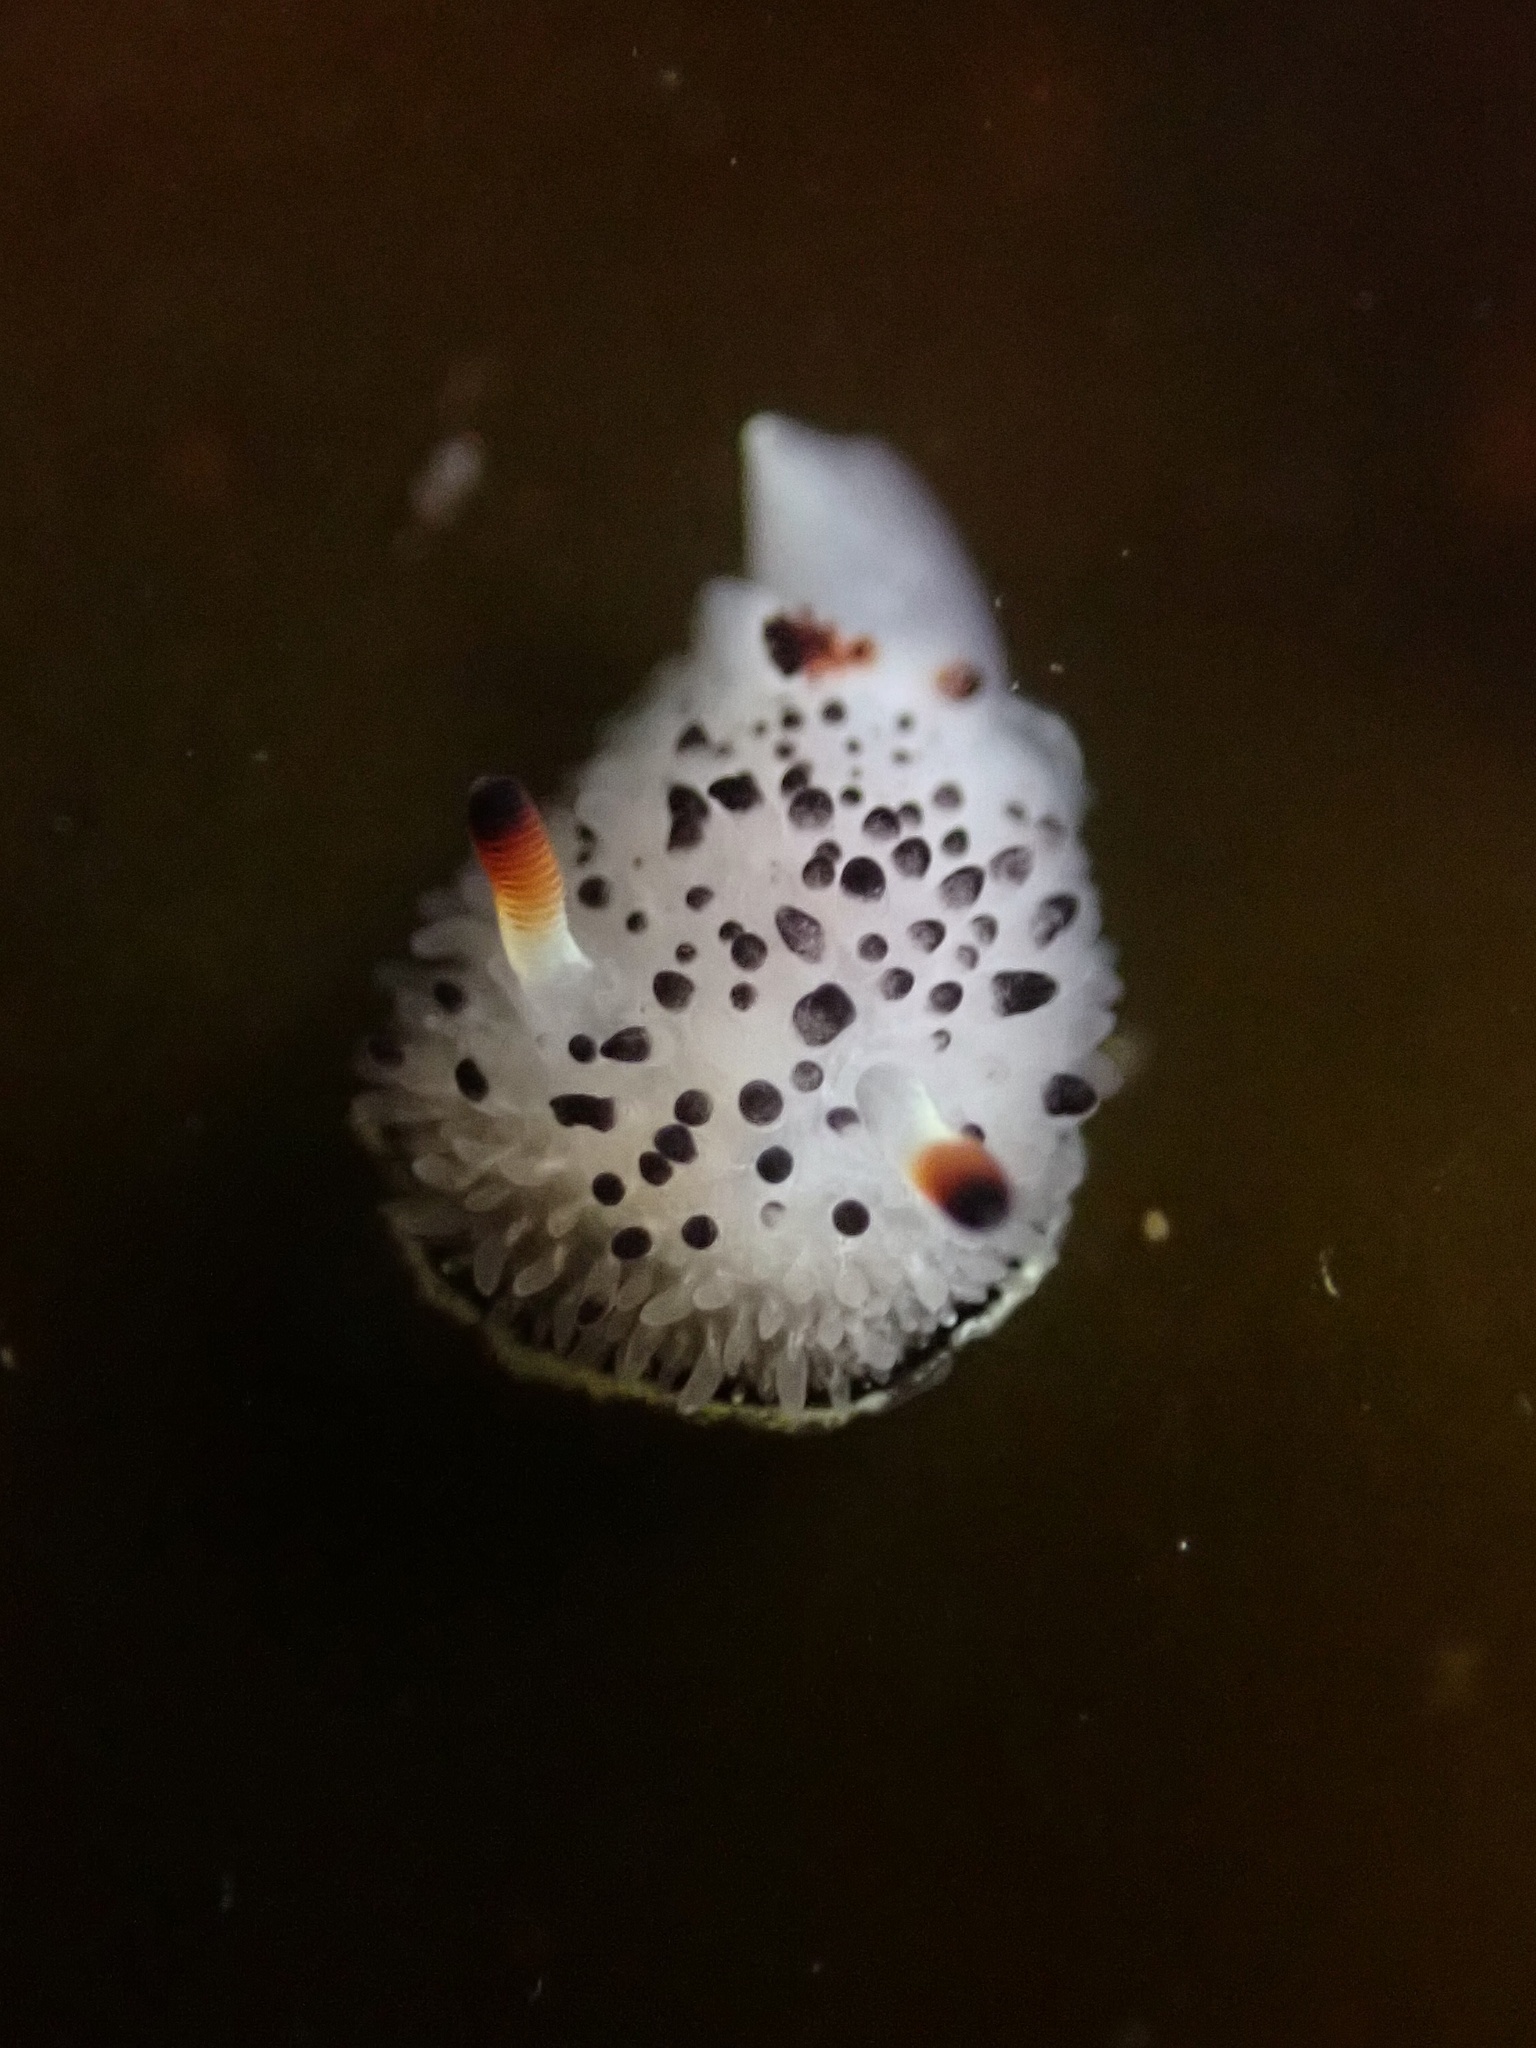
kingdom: Animalia
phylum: Mollusca
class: Gastropoda
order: Nudibranchia
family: Onchidorididae
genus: Acanthodoris
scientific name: Acanthodoris rhodoceras
